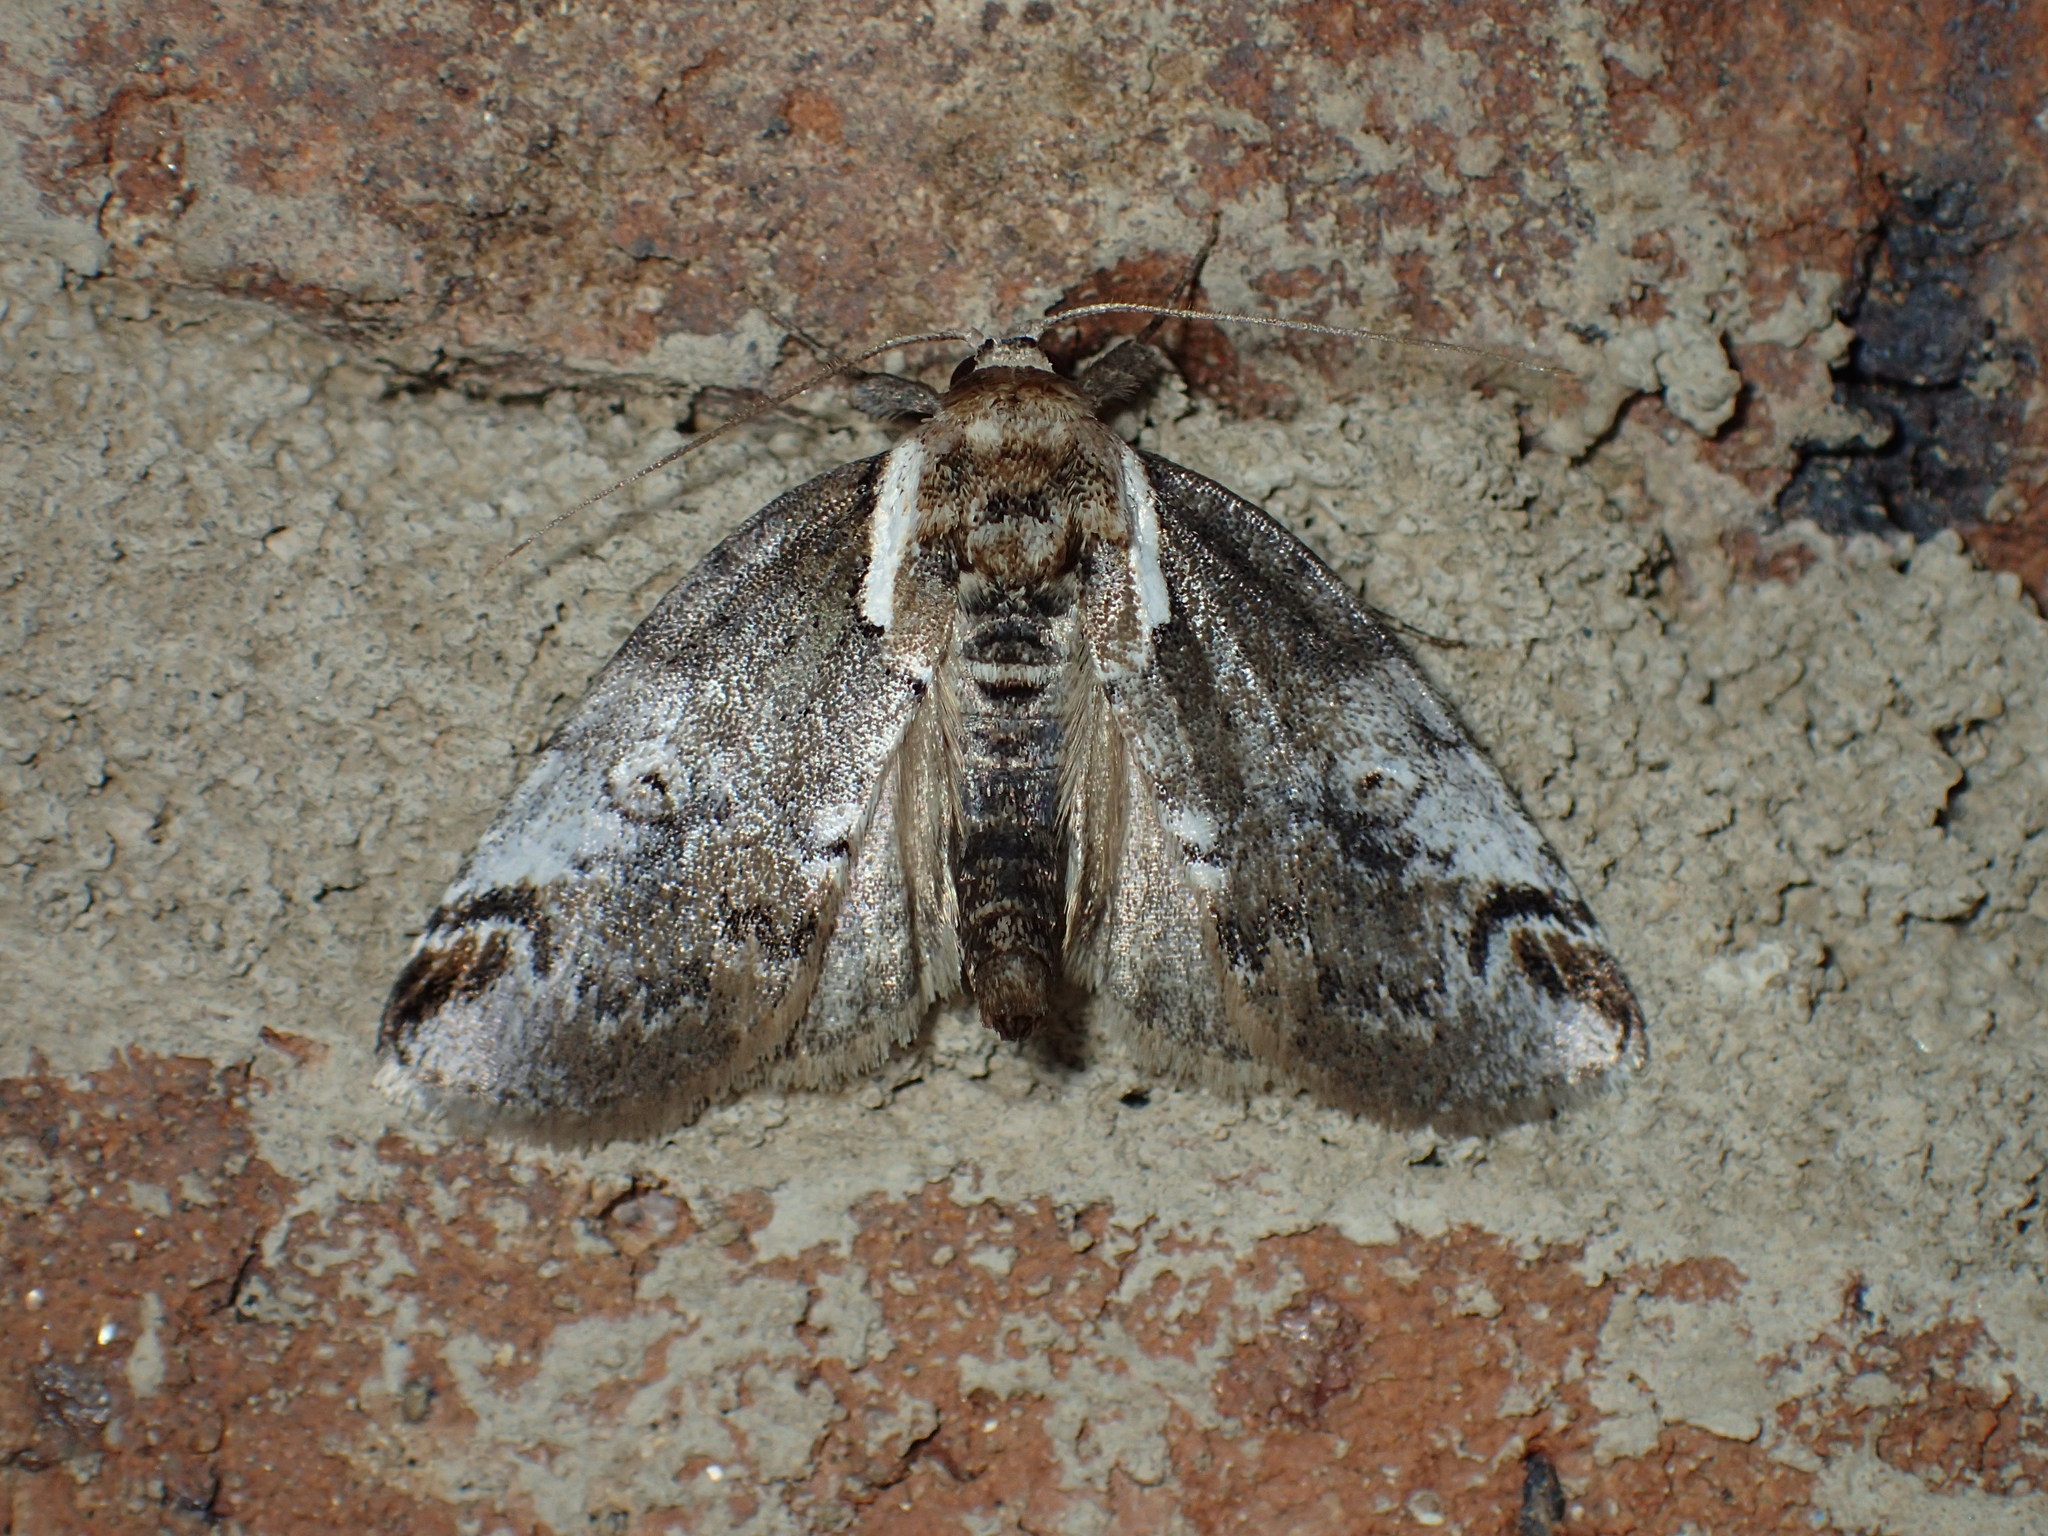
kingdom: Animalia
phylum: Arthropoda
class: Insecta
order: Lepidoptera
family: Nolidae
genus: Baileya
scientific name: Baileya ophthalmica
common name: Eyed baileya moth
